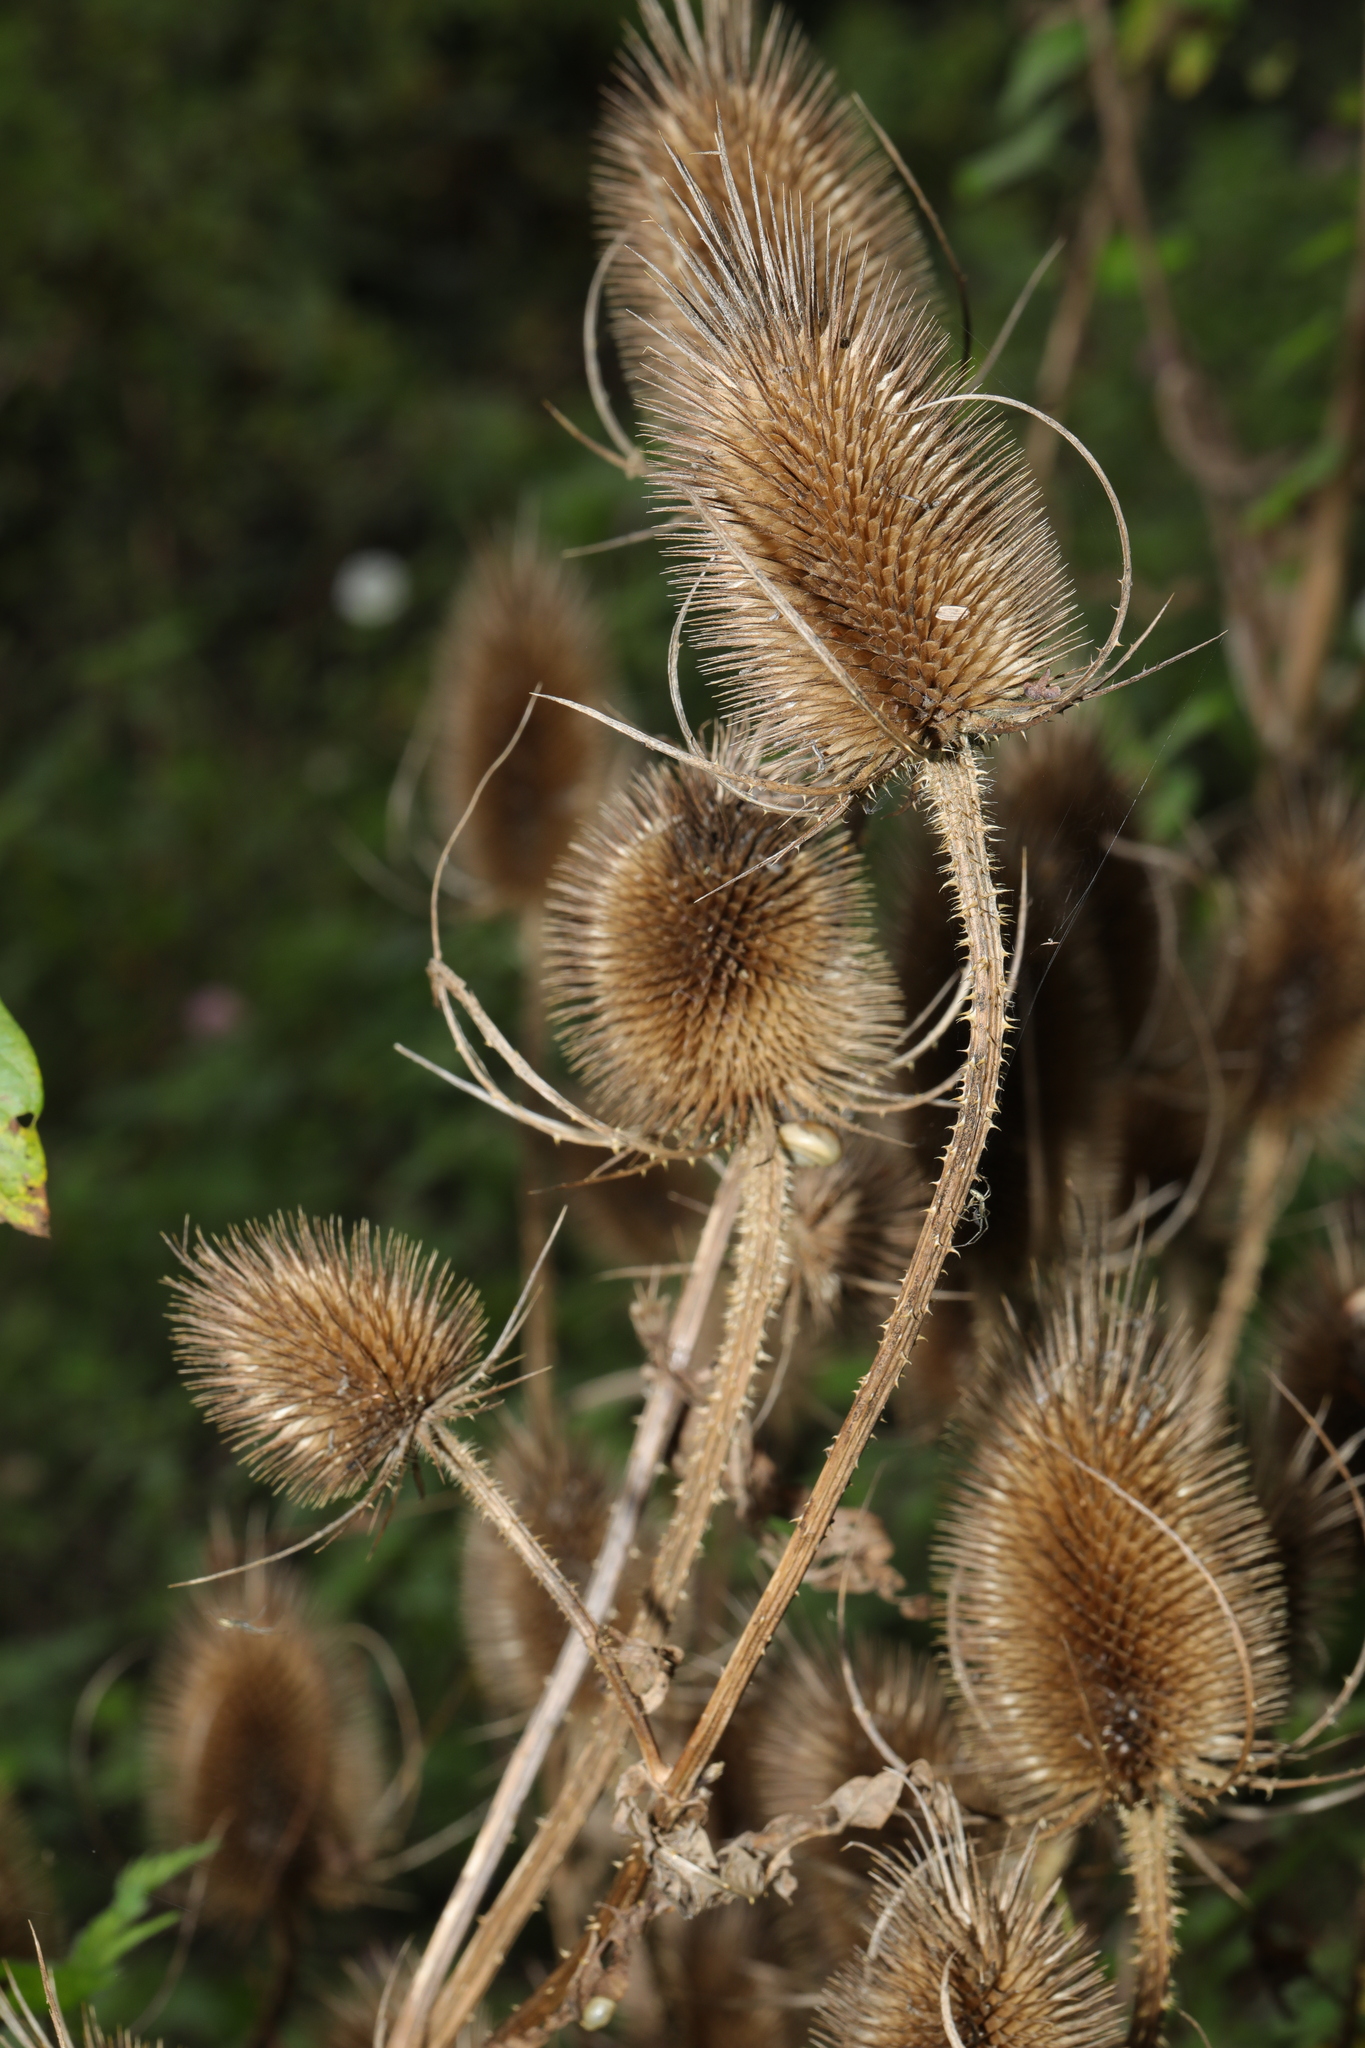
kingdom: Plantae
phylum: Tracheophyta
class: Magnoliopsida
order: Dipsacales
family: Caprifoliaceae
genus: Dipsacus
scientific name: Dipsacus fullonum
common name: Teasel
